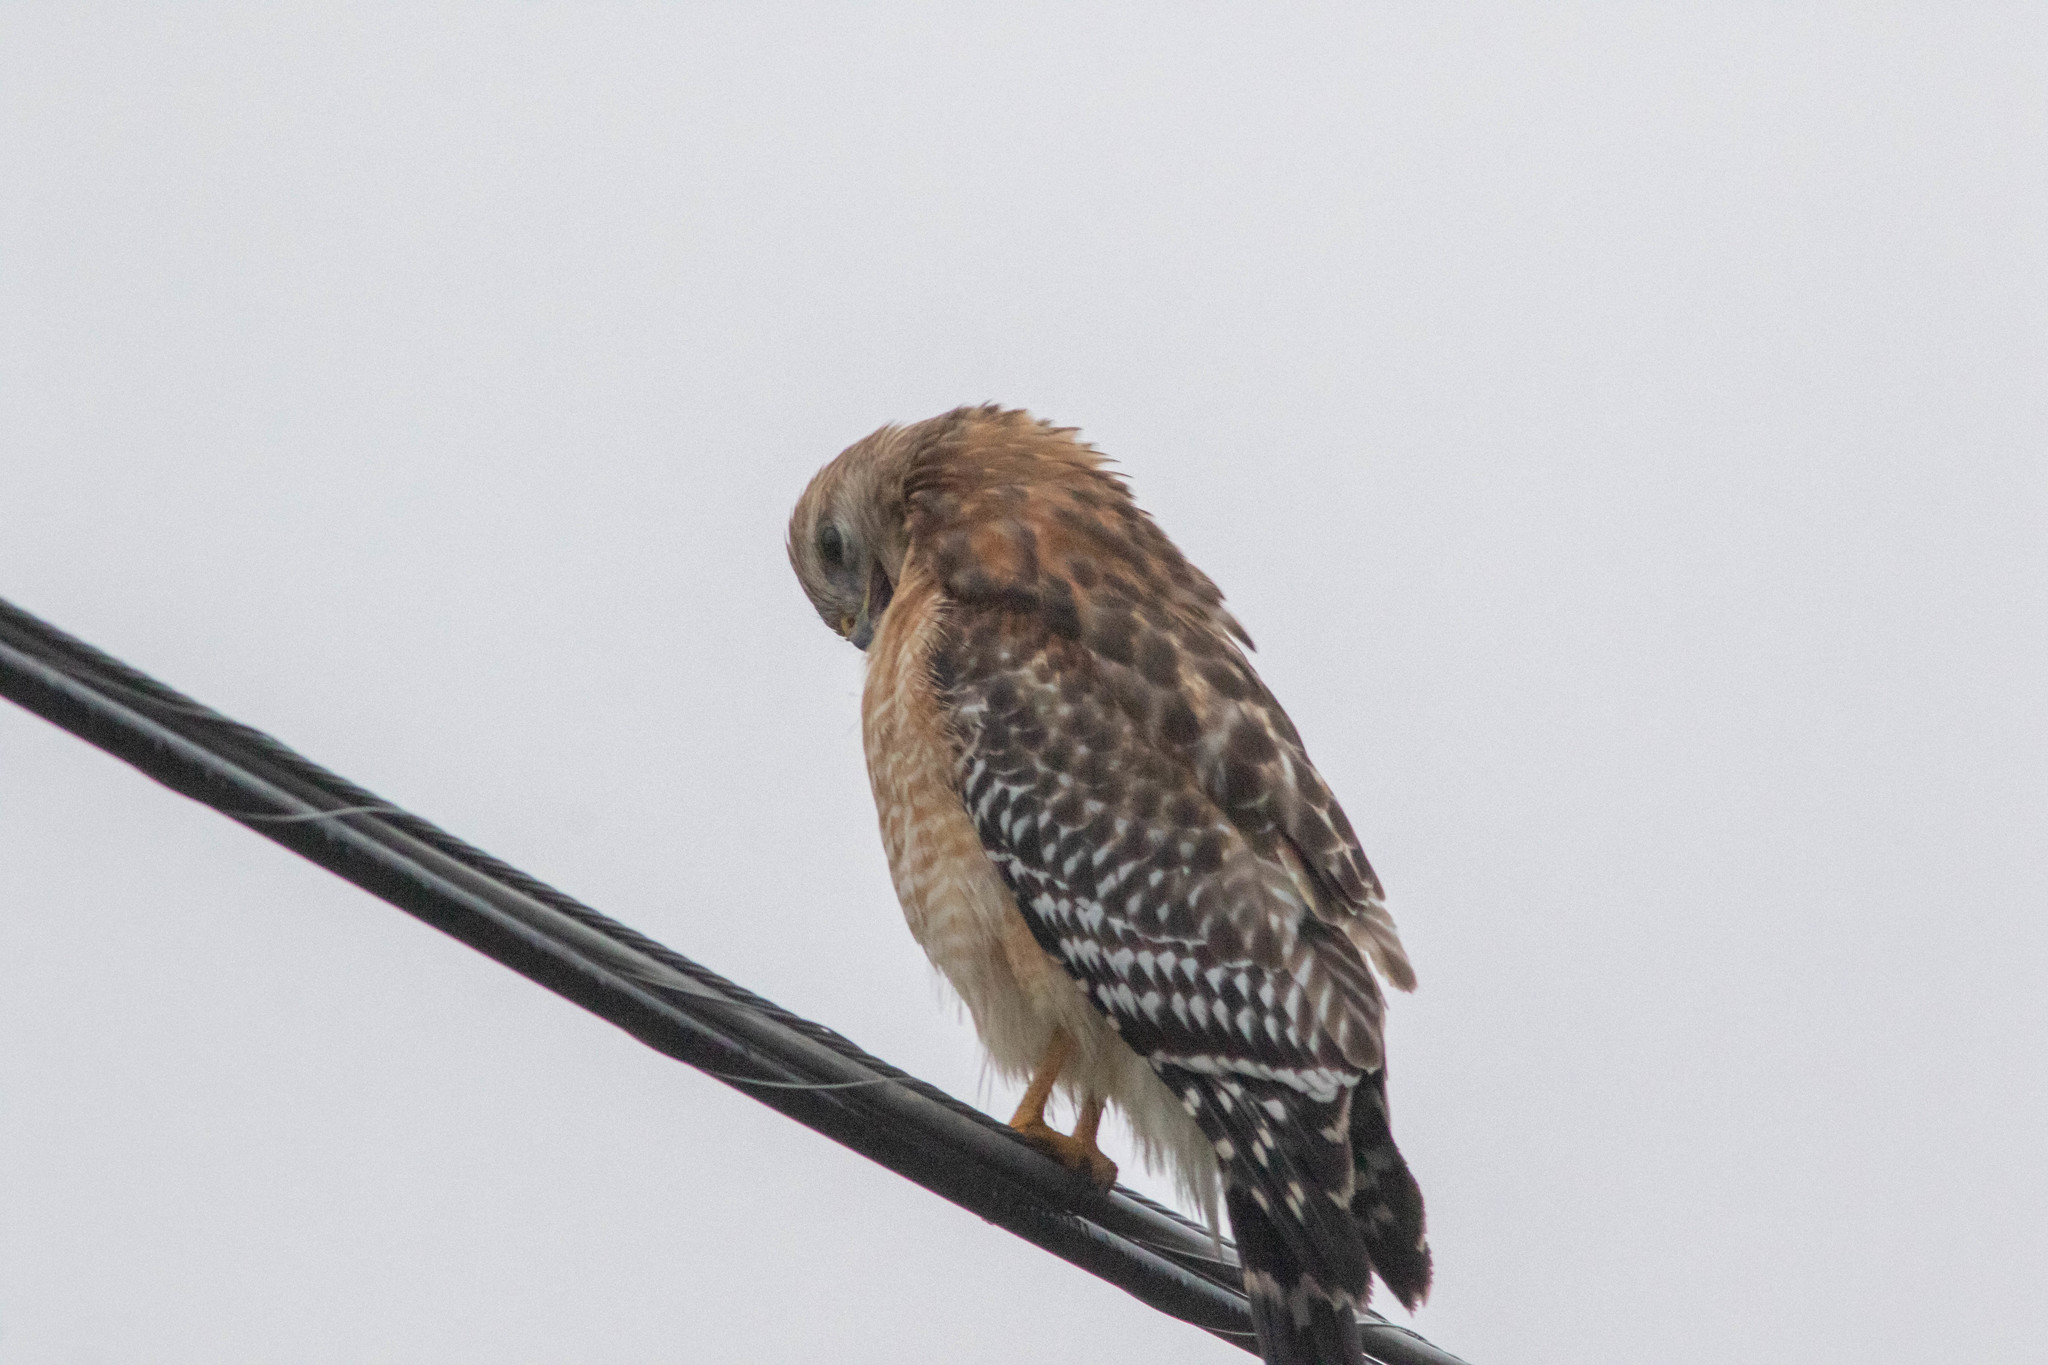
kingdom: Animalia
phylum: Chordata
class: Aves
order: Accipitriformes
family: Accipitridae
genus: Buteo
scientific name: Buteo lineatus
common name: Red-shouldered hawk
